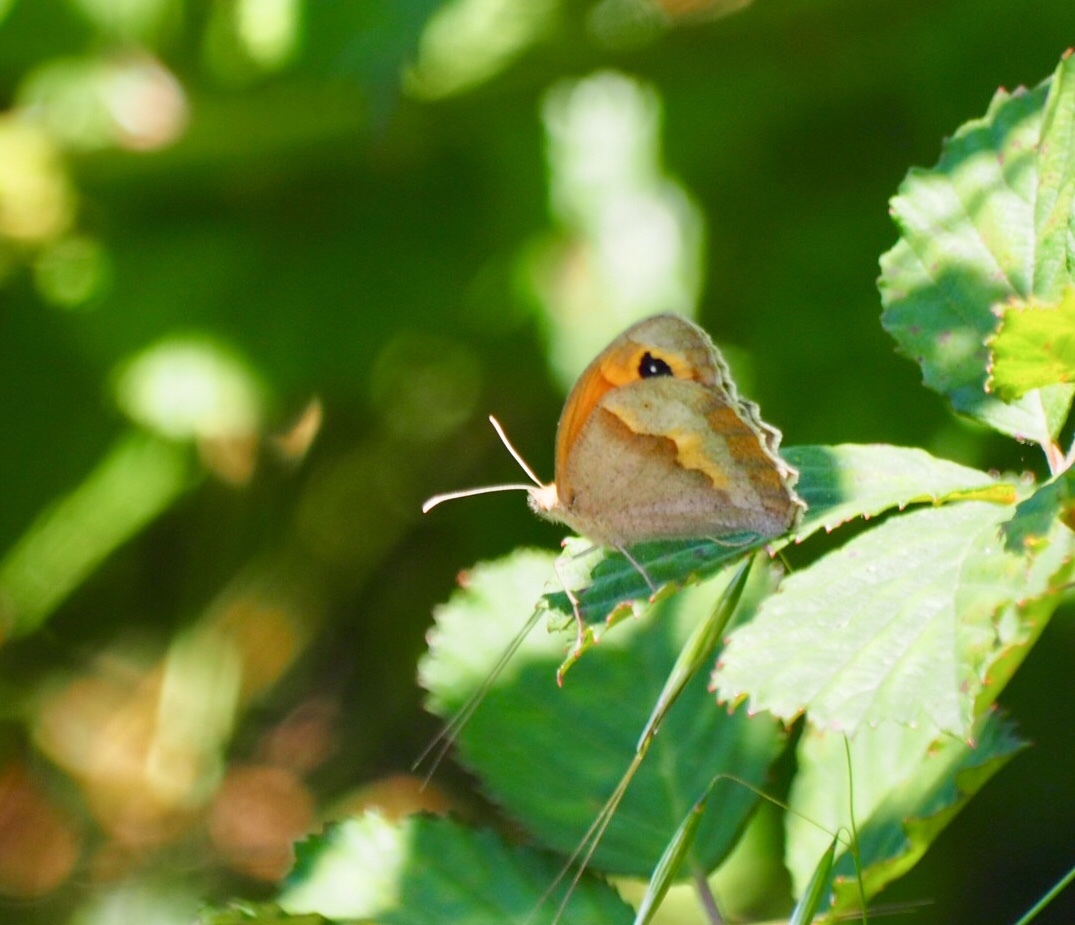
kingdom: Animalia
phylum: Arthropoda
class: Insecta
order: Lepidoptera
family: Nymphalidae
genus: Maniola
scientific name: Maniola jurtina
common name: Meadow brown
